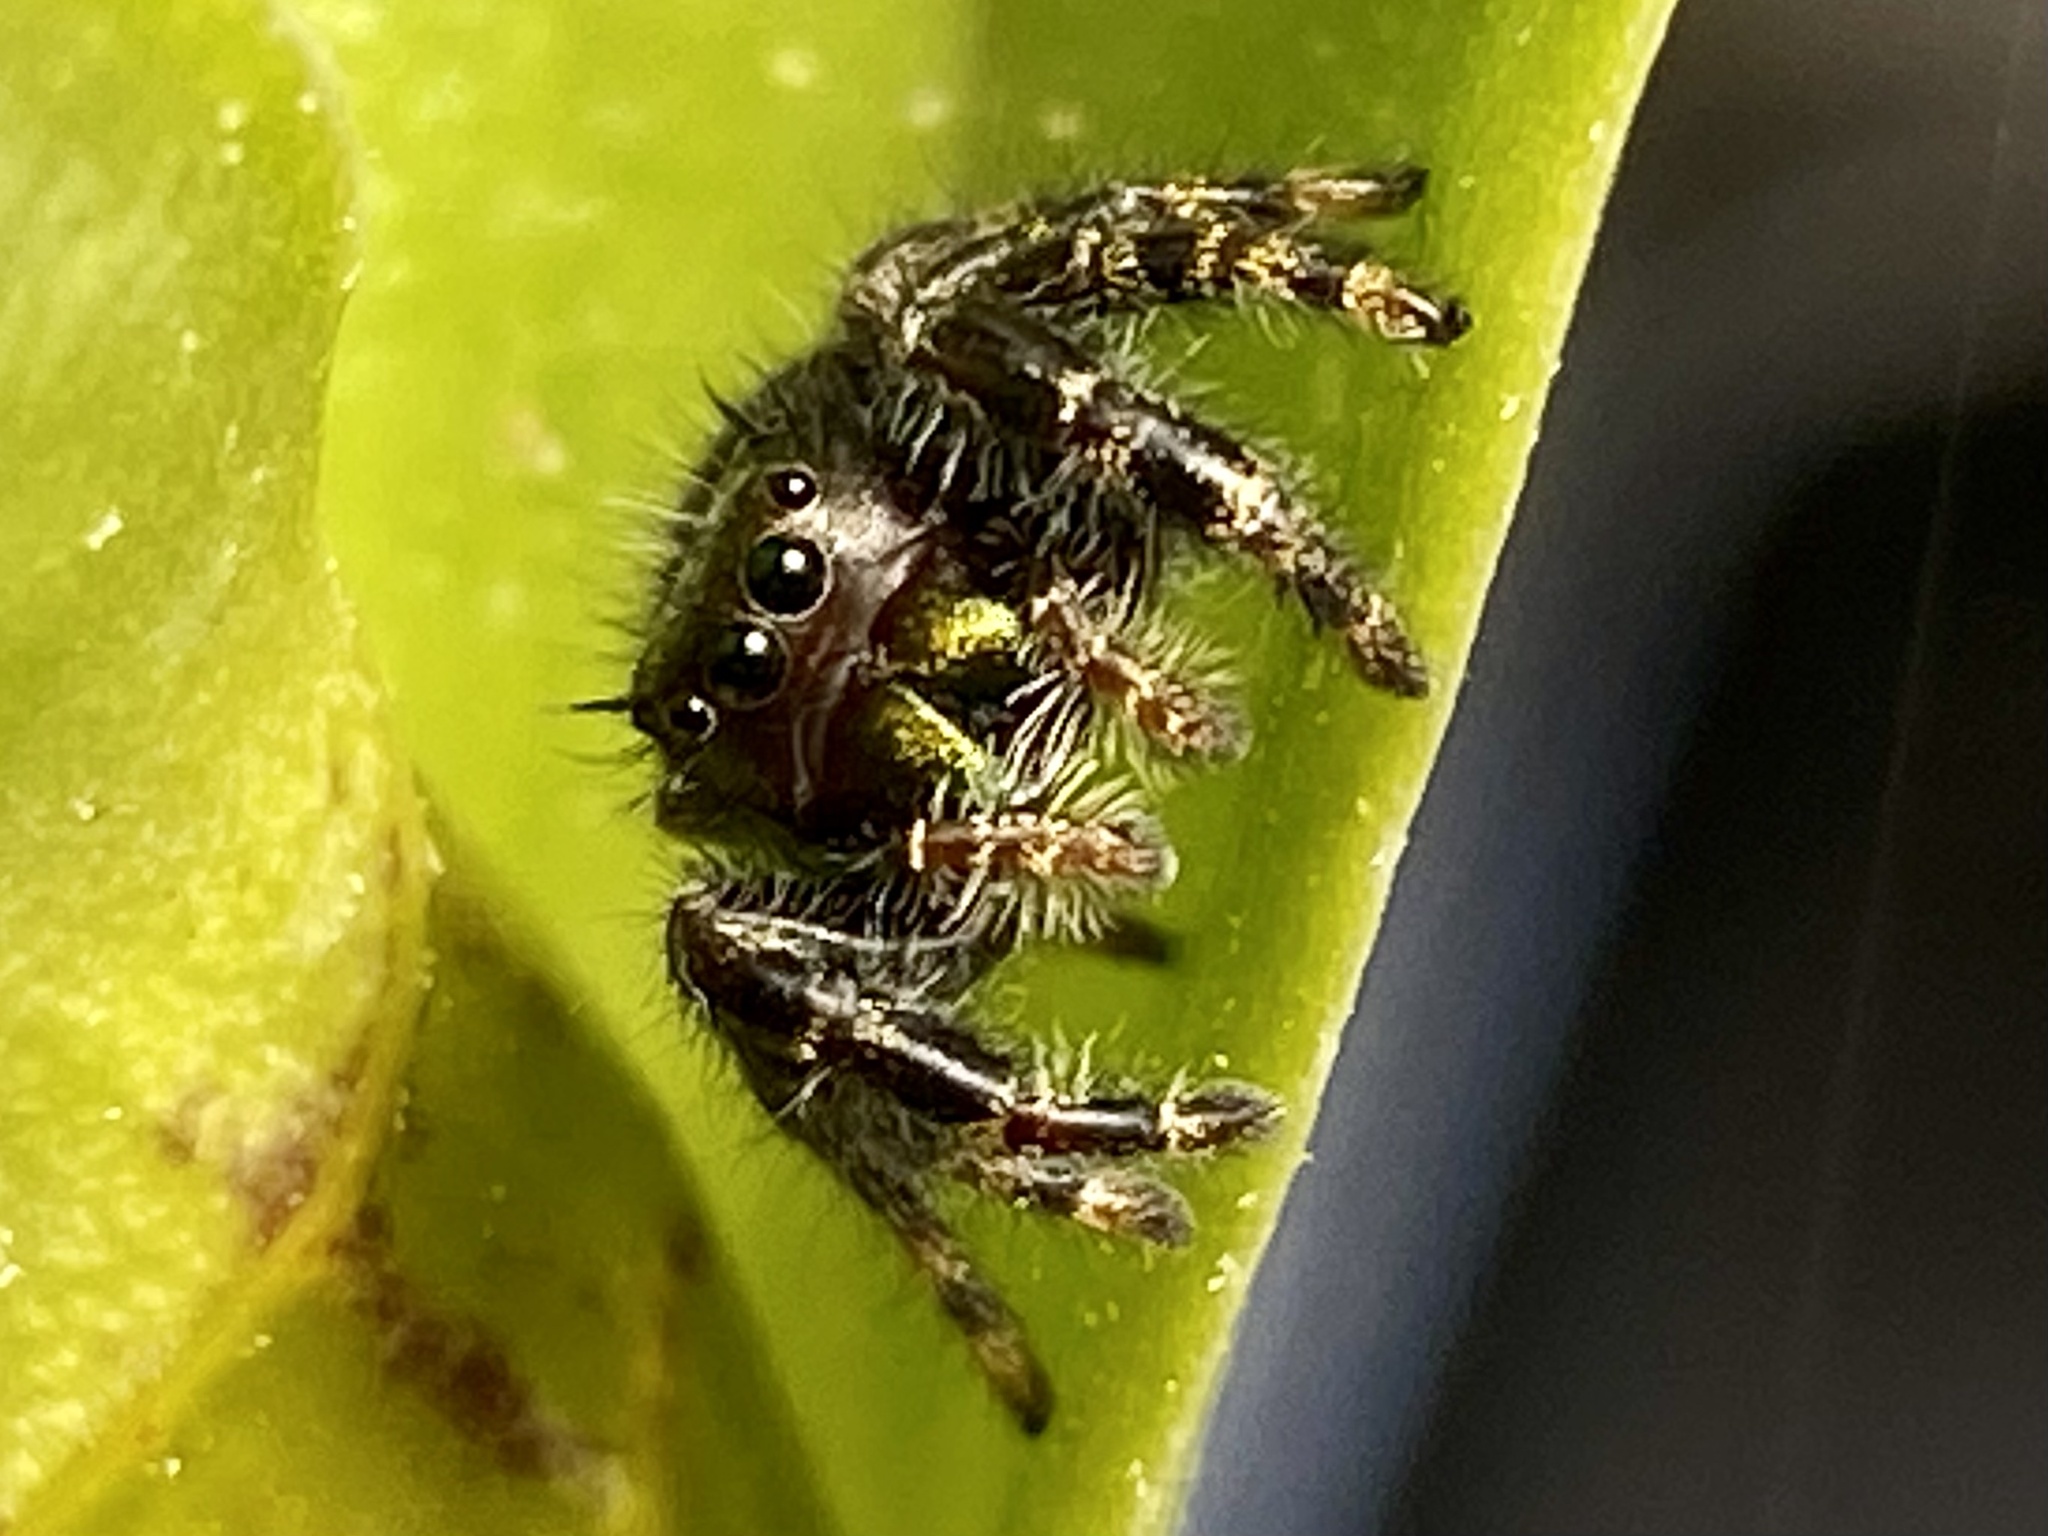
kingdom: Animalia
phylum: Arthropoda
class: Arachnida
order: Araneae
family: Salticidae
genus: Phidippus
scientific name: Phidippus audax
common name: Bold jumper
